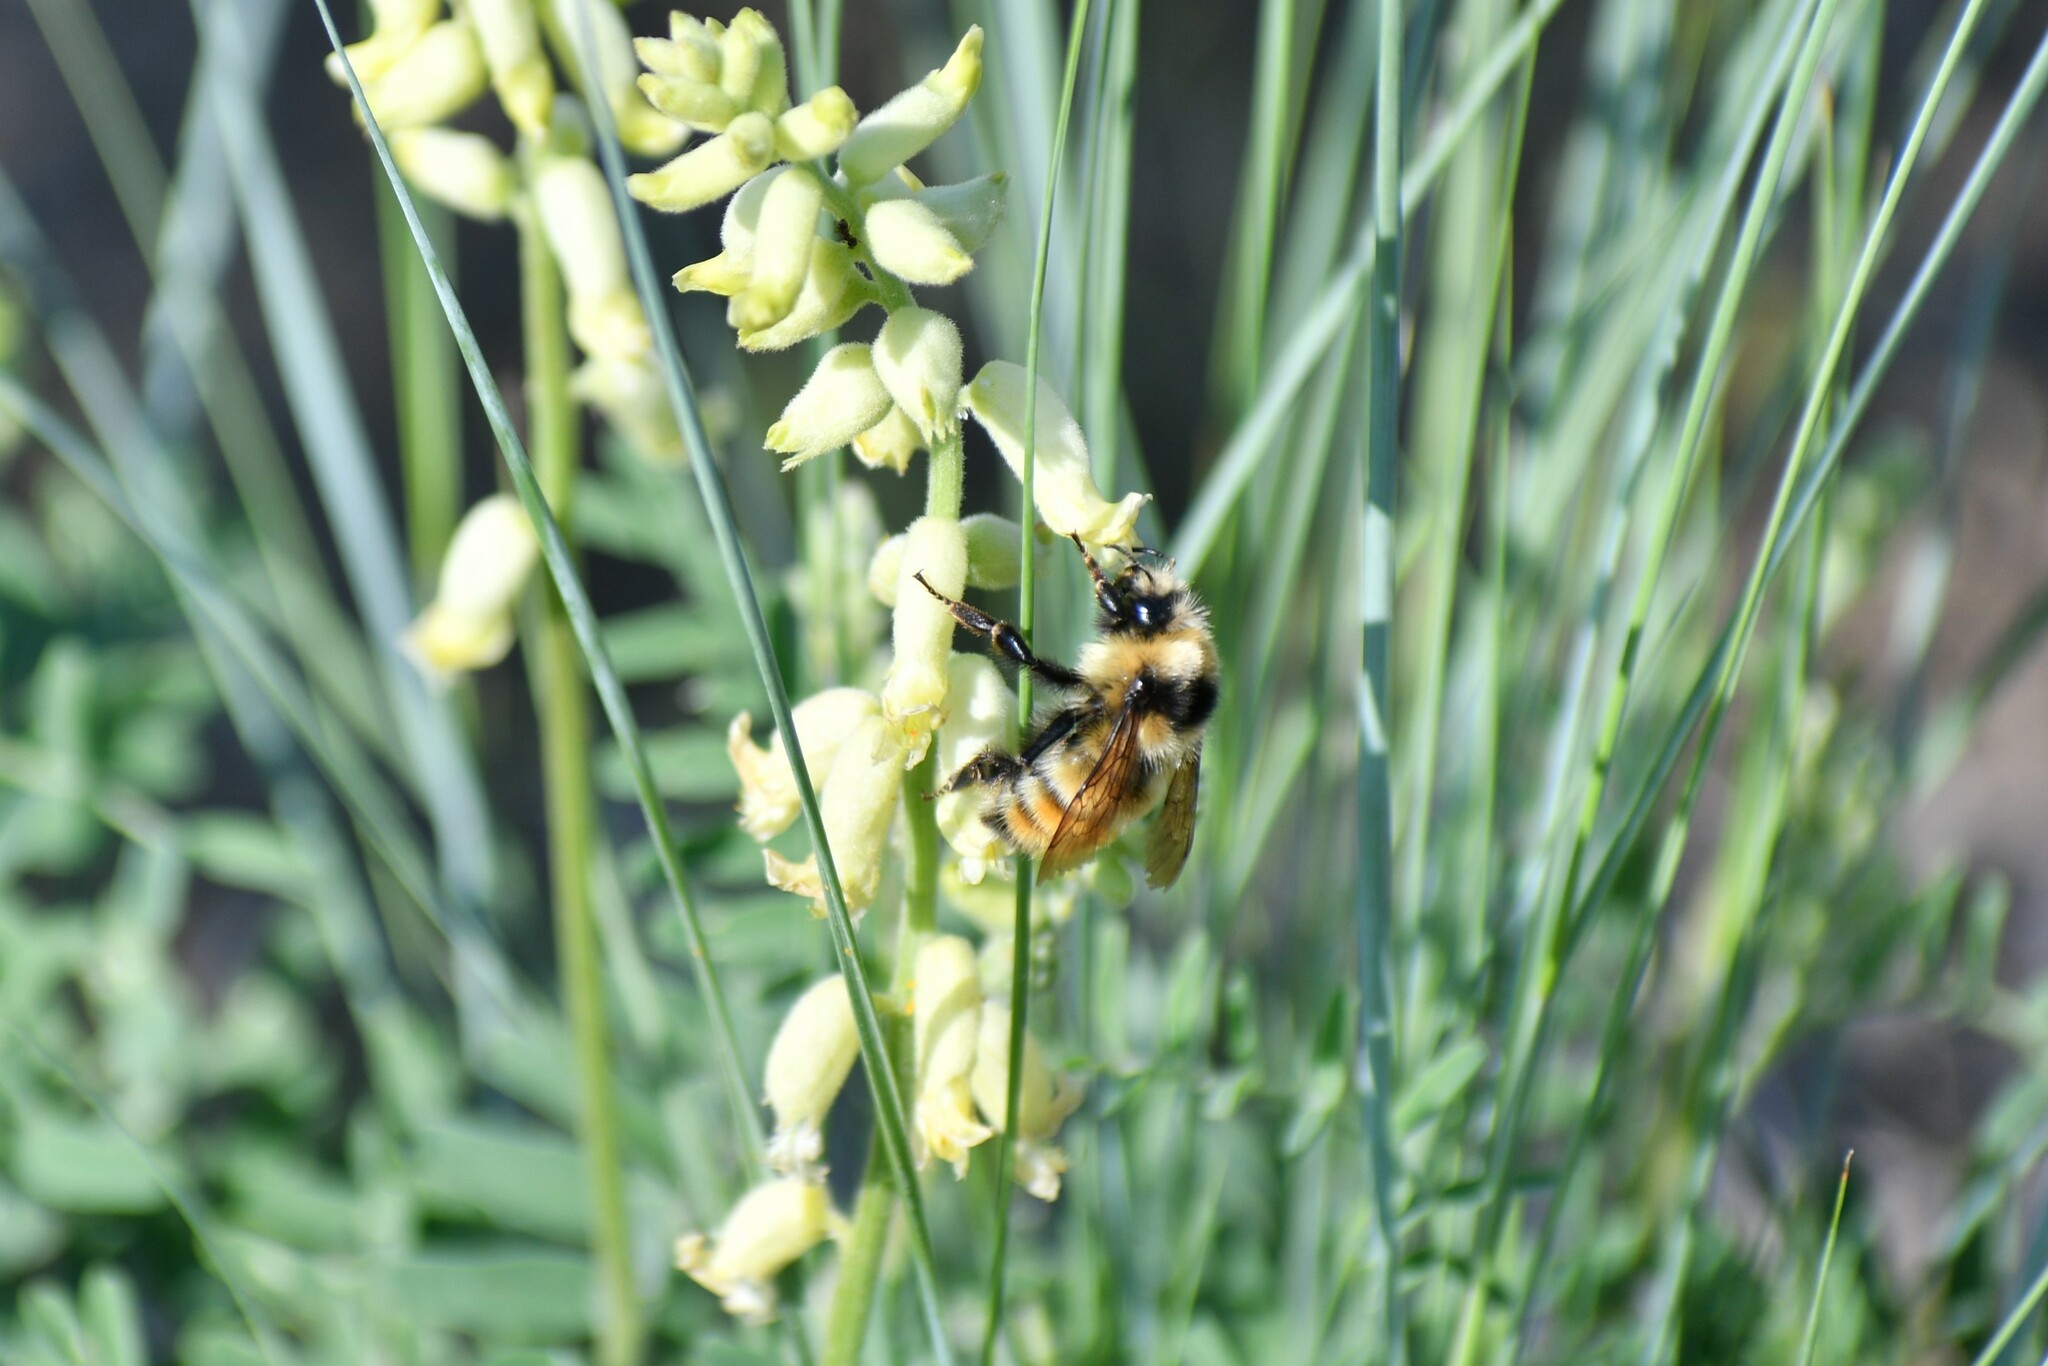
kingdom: Animalia
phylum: Arthropoda
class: Insecta
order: Hymenoptera
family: Apidae
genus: Bombus
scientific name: Bombus centralis
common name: Central bumble bee
